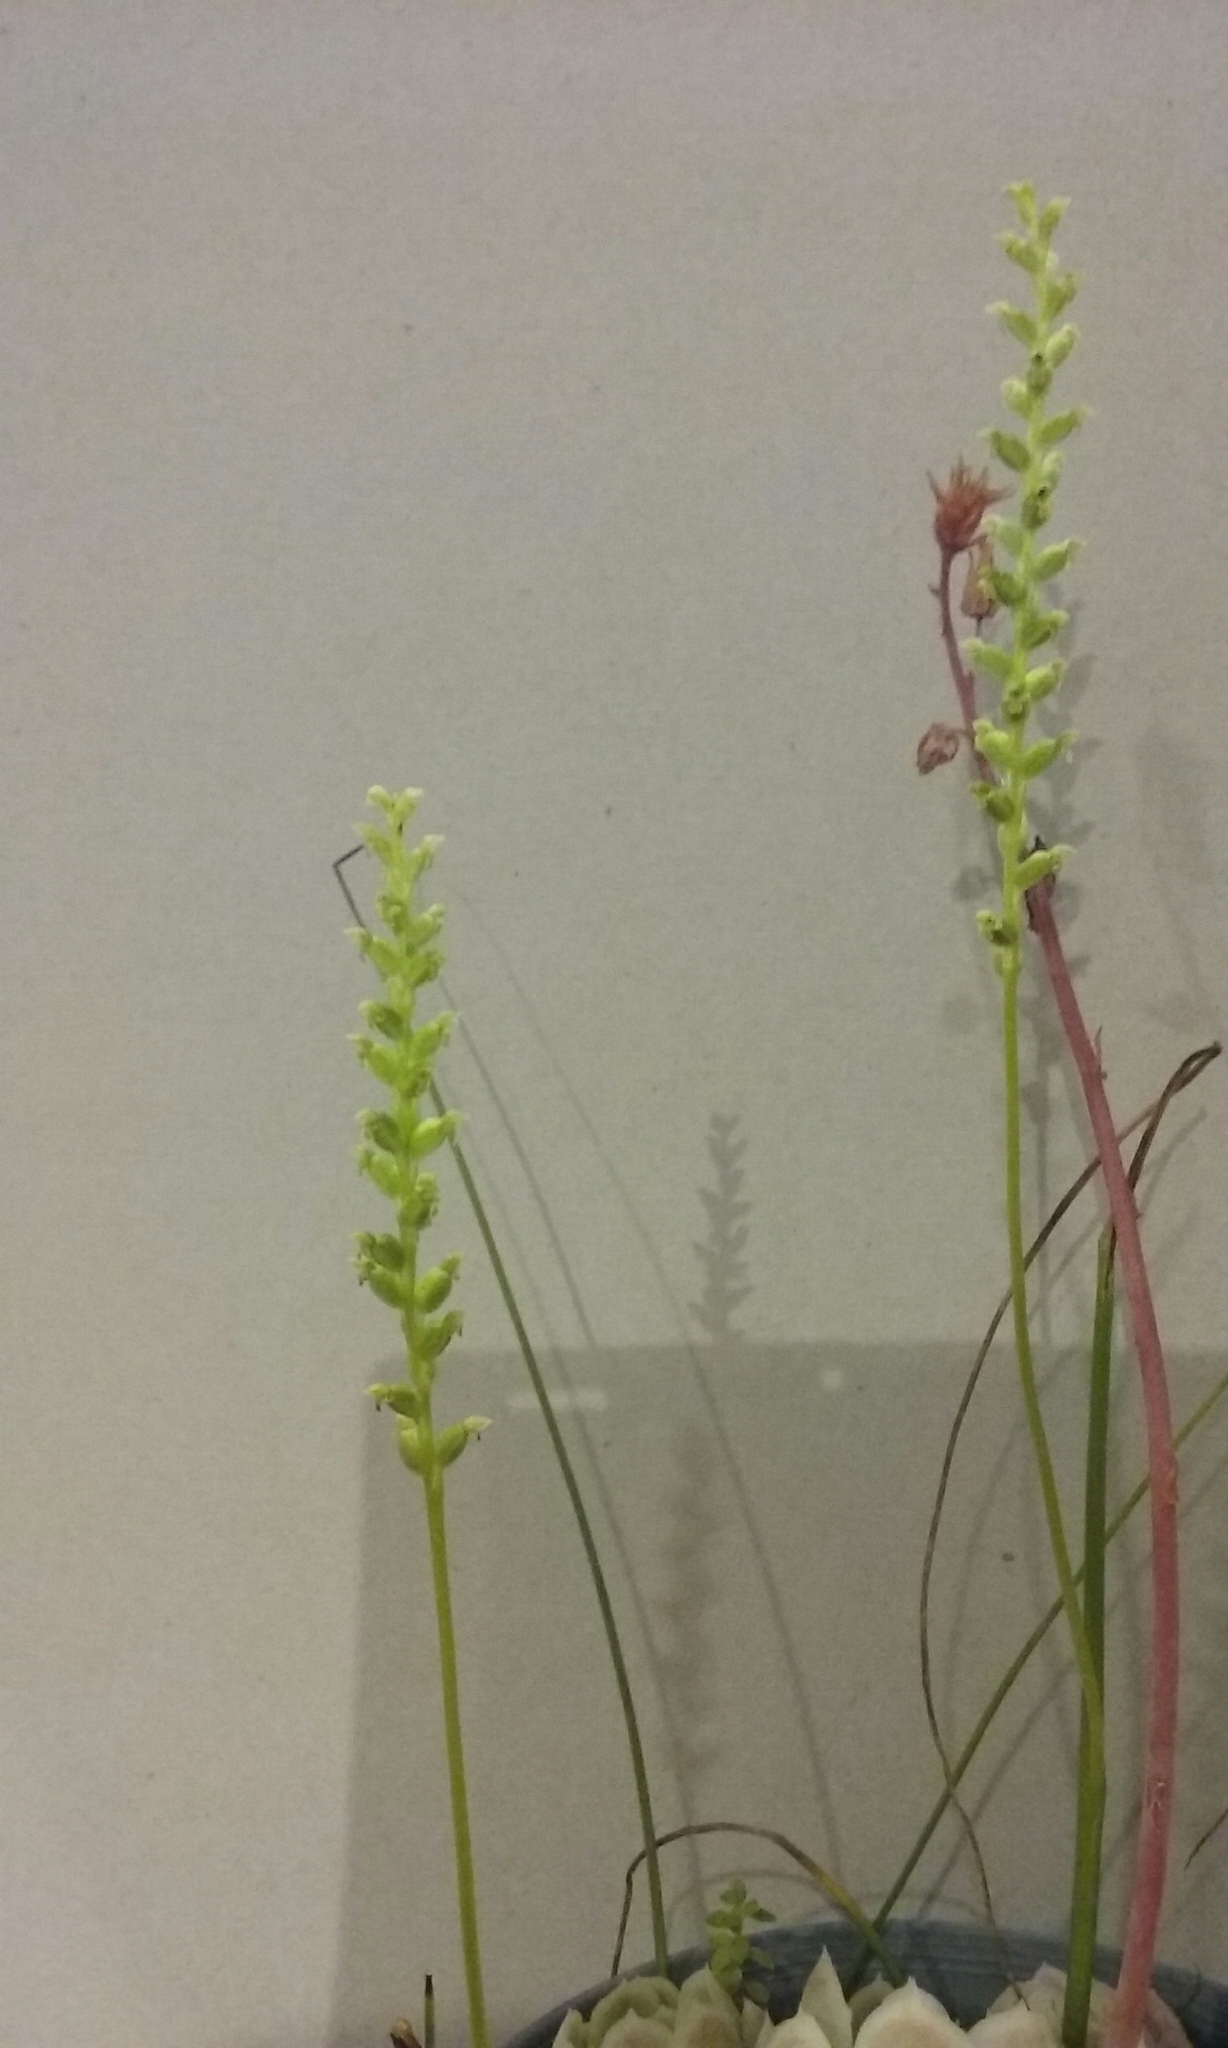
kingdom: Plantae
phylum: Tracheophyta
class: Liliopsida
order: Asparagales
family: Orchidaceae
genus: Microtis
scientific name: Microtis unifolia
